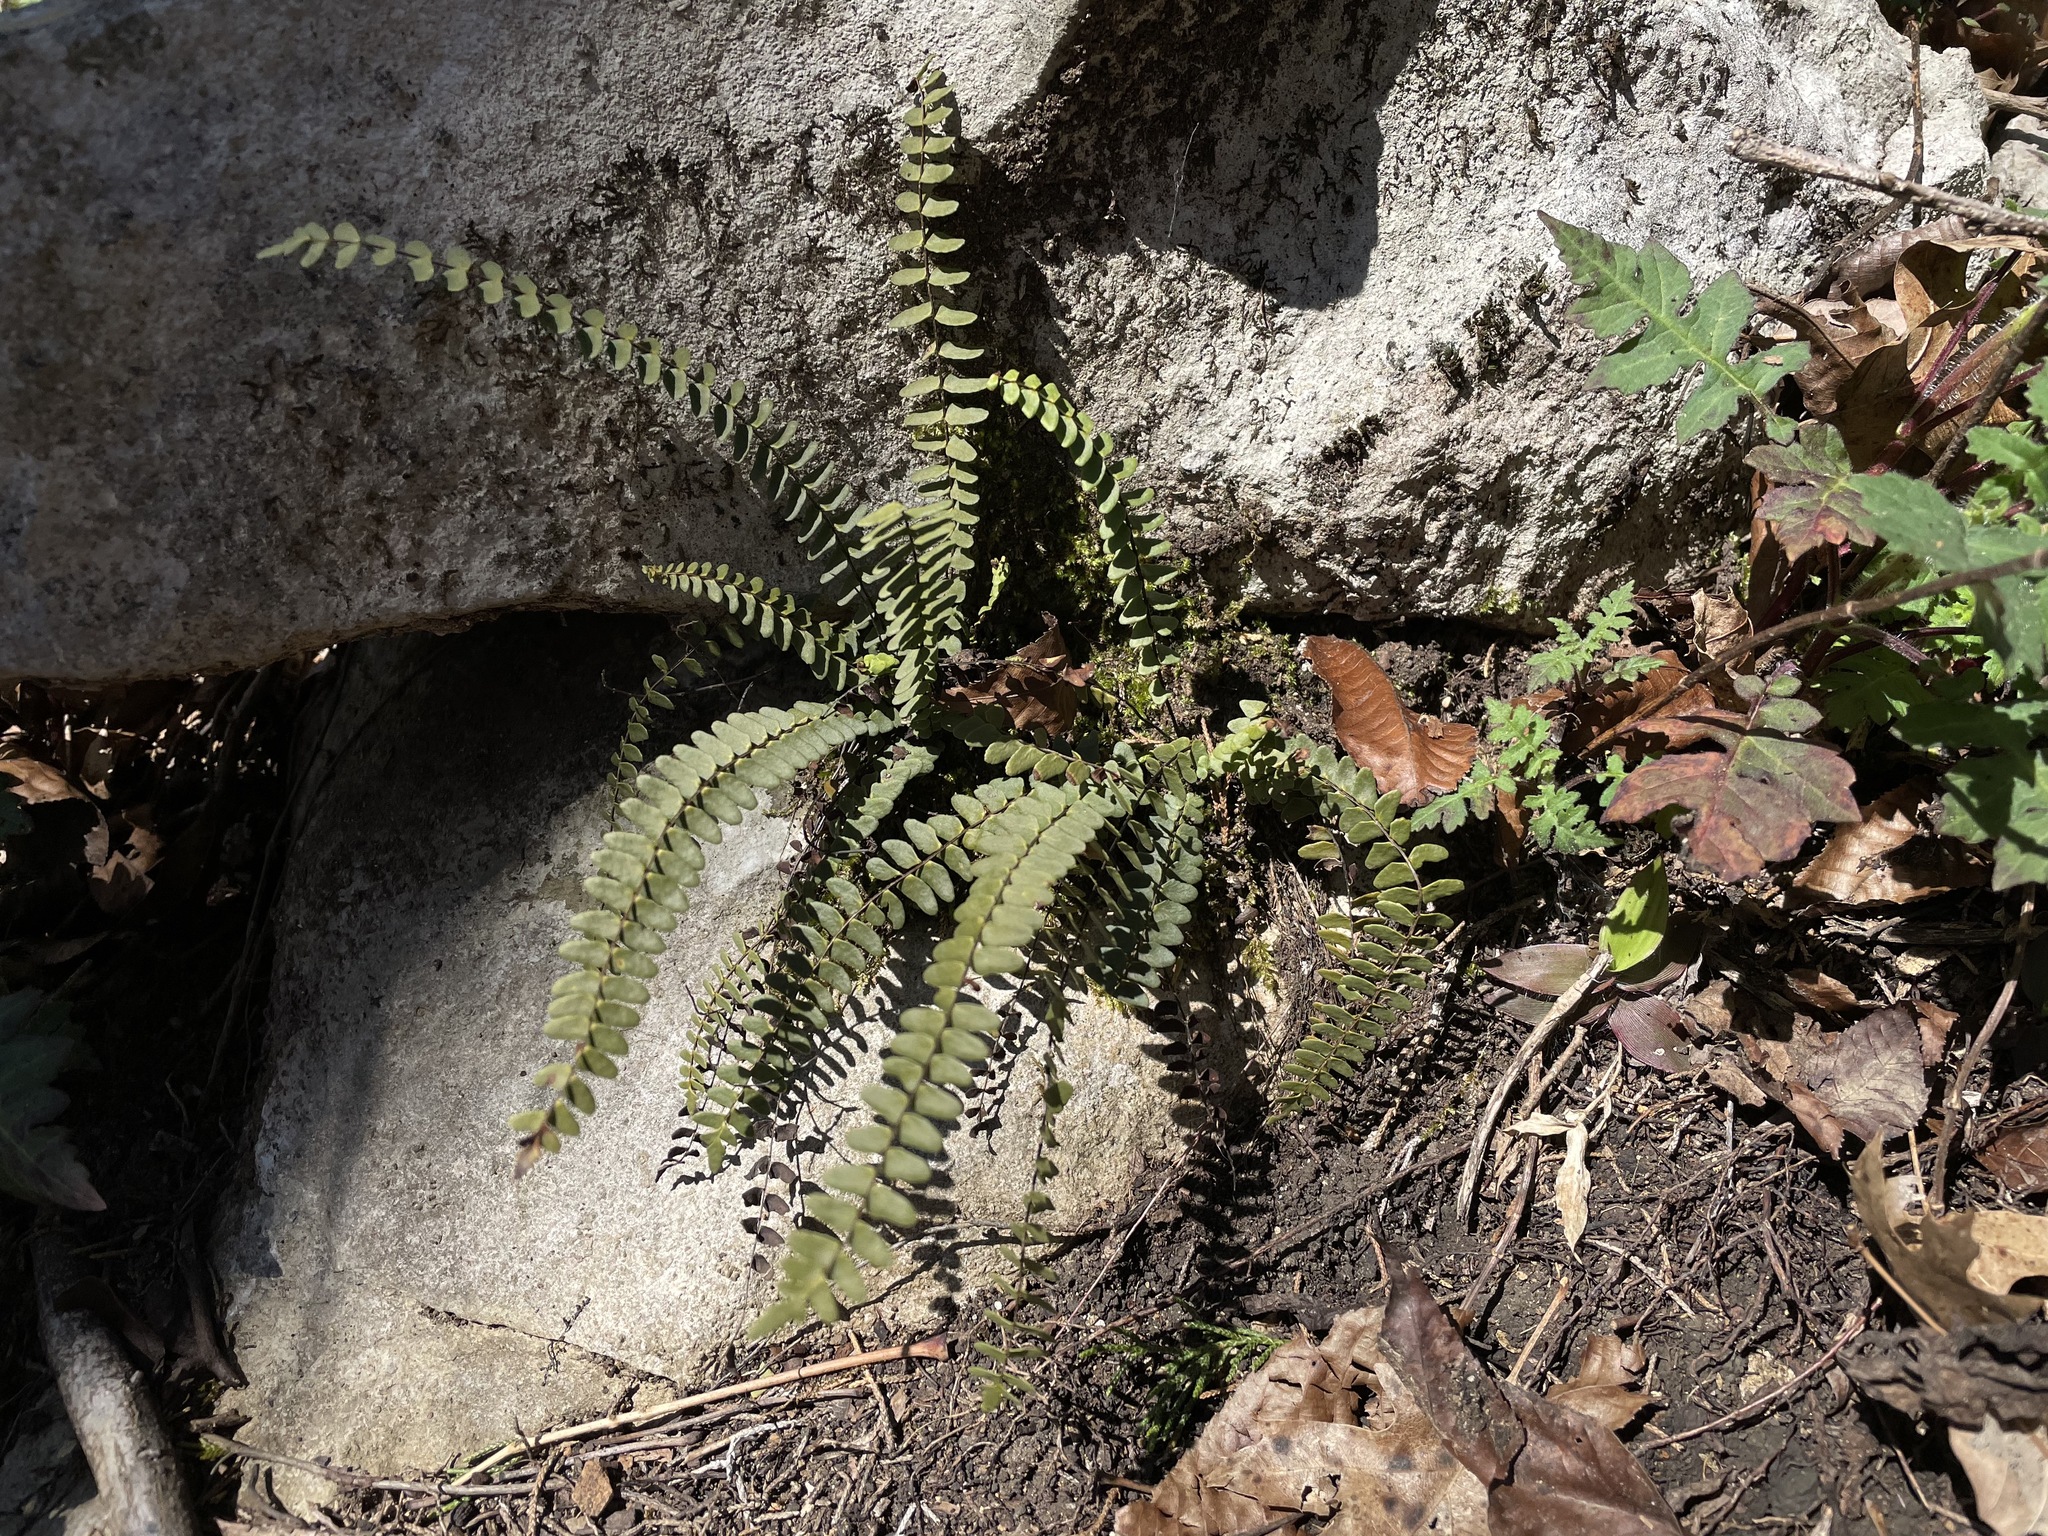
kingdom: Plantae
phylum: Tracheophyta
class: Polypodiopsida
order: Polypodiales
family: Aspleniaceae
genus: Asplenium
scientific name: Asplenium resiliens
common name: Blackstem spleenwort
